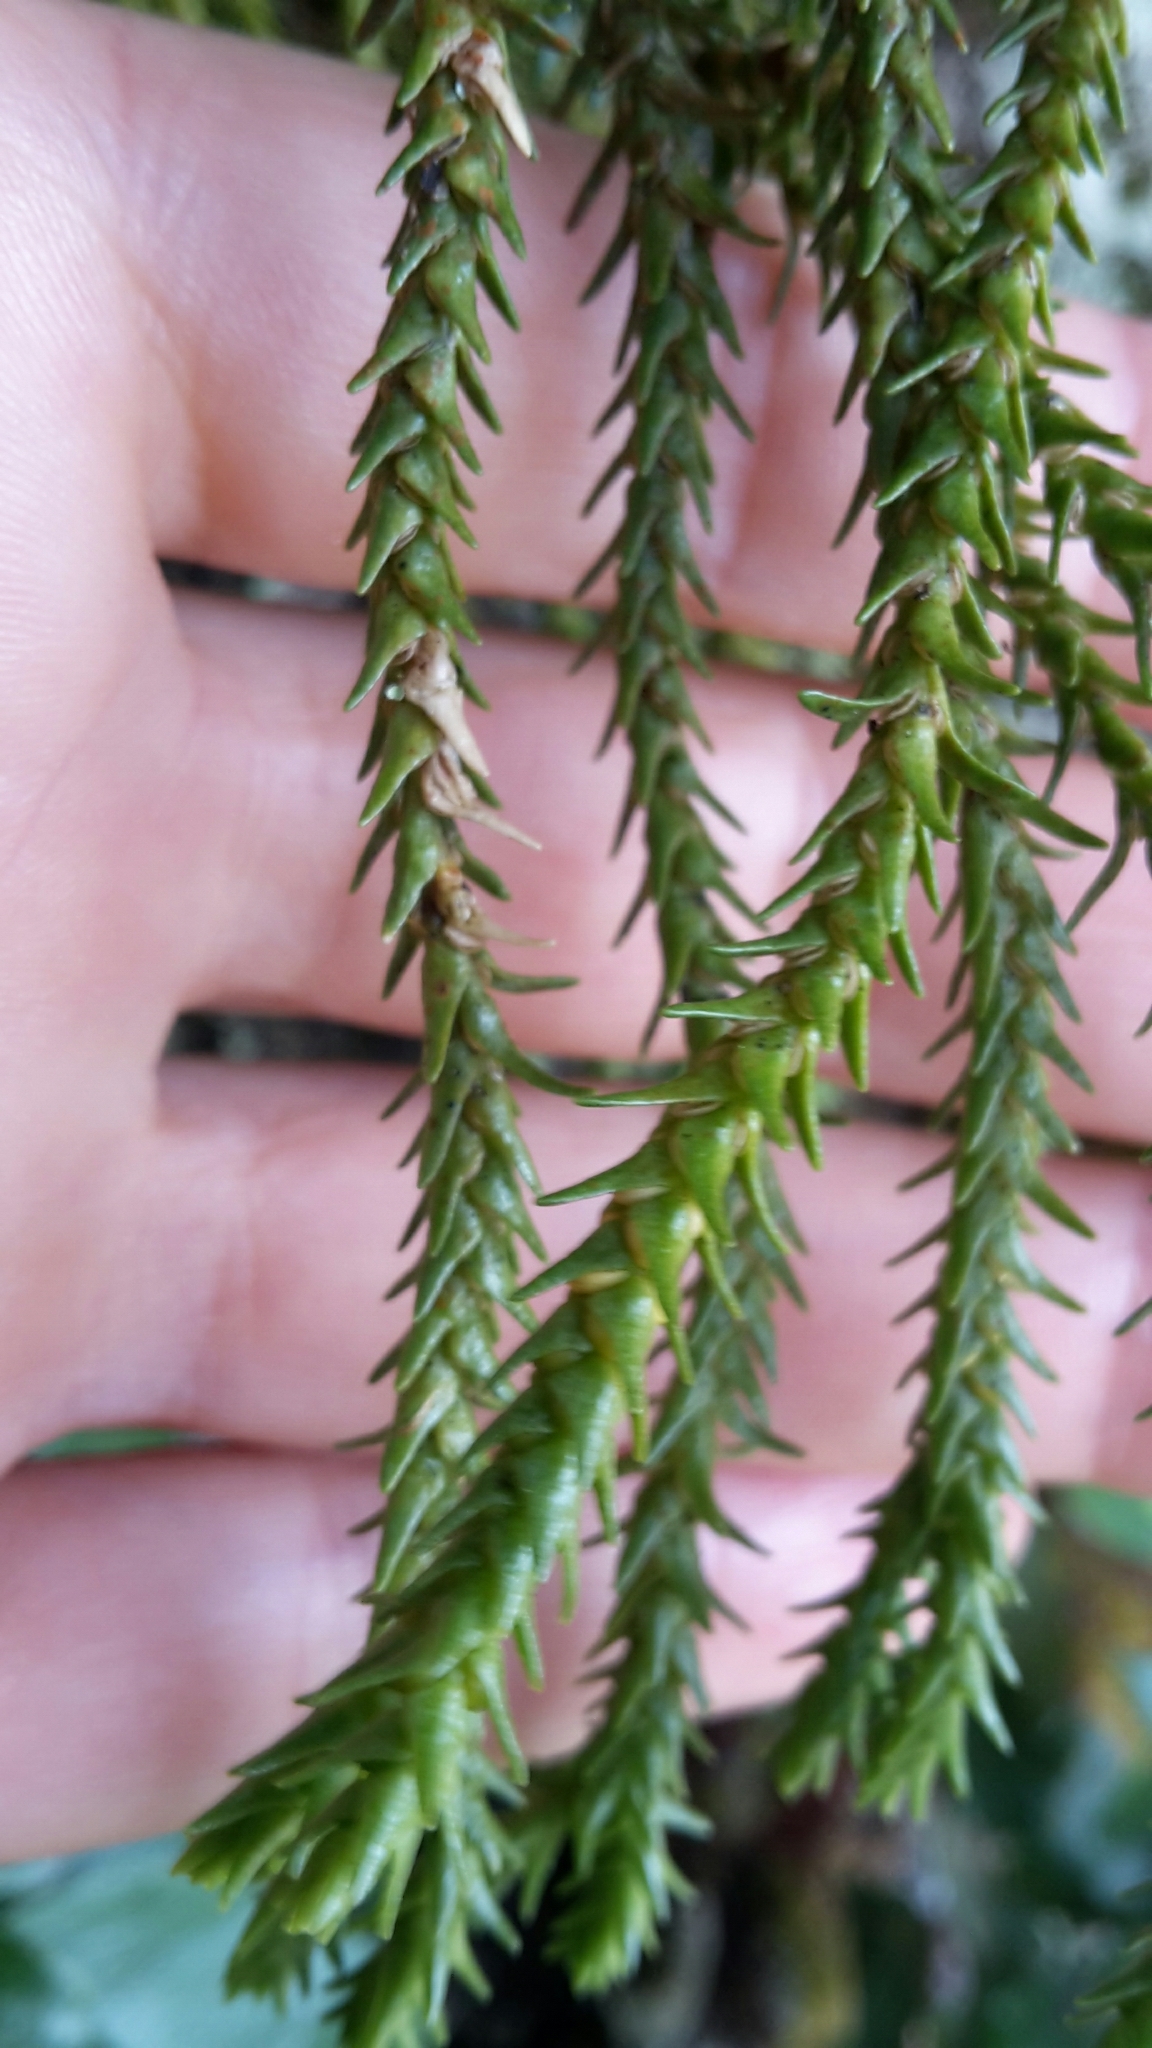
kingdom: Plantae
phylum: Tracheophyta
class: Lycopodiopsida
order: Lycopodiales
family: Lycopodiaceae
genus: Phlegmariurus
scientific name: Phlegmariurus varius
